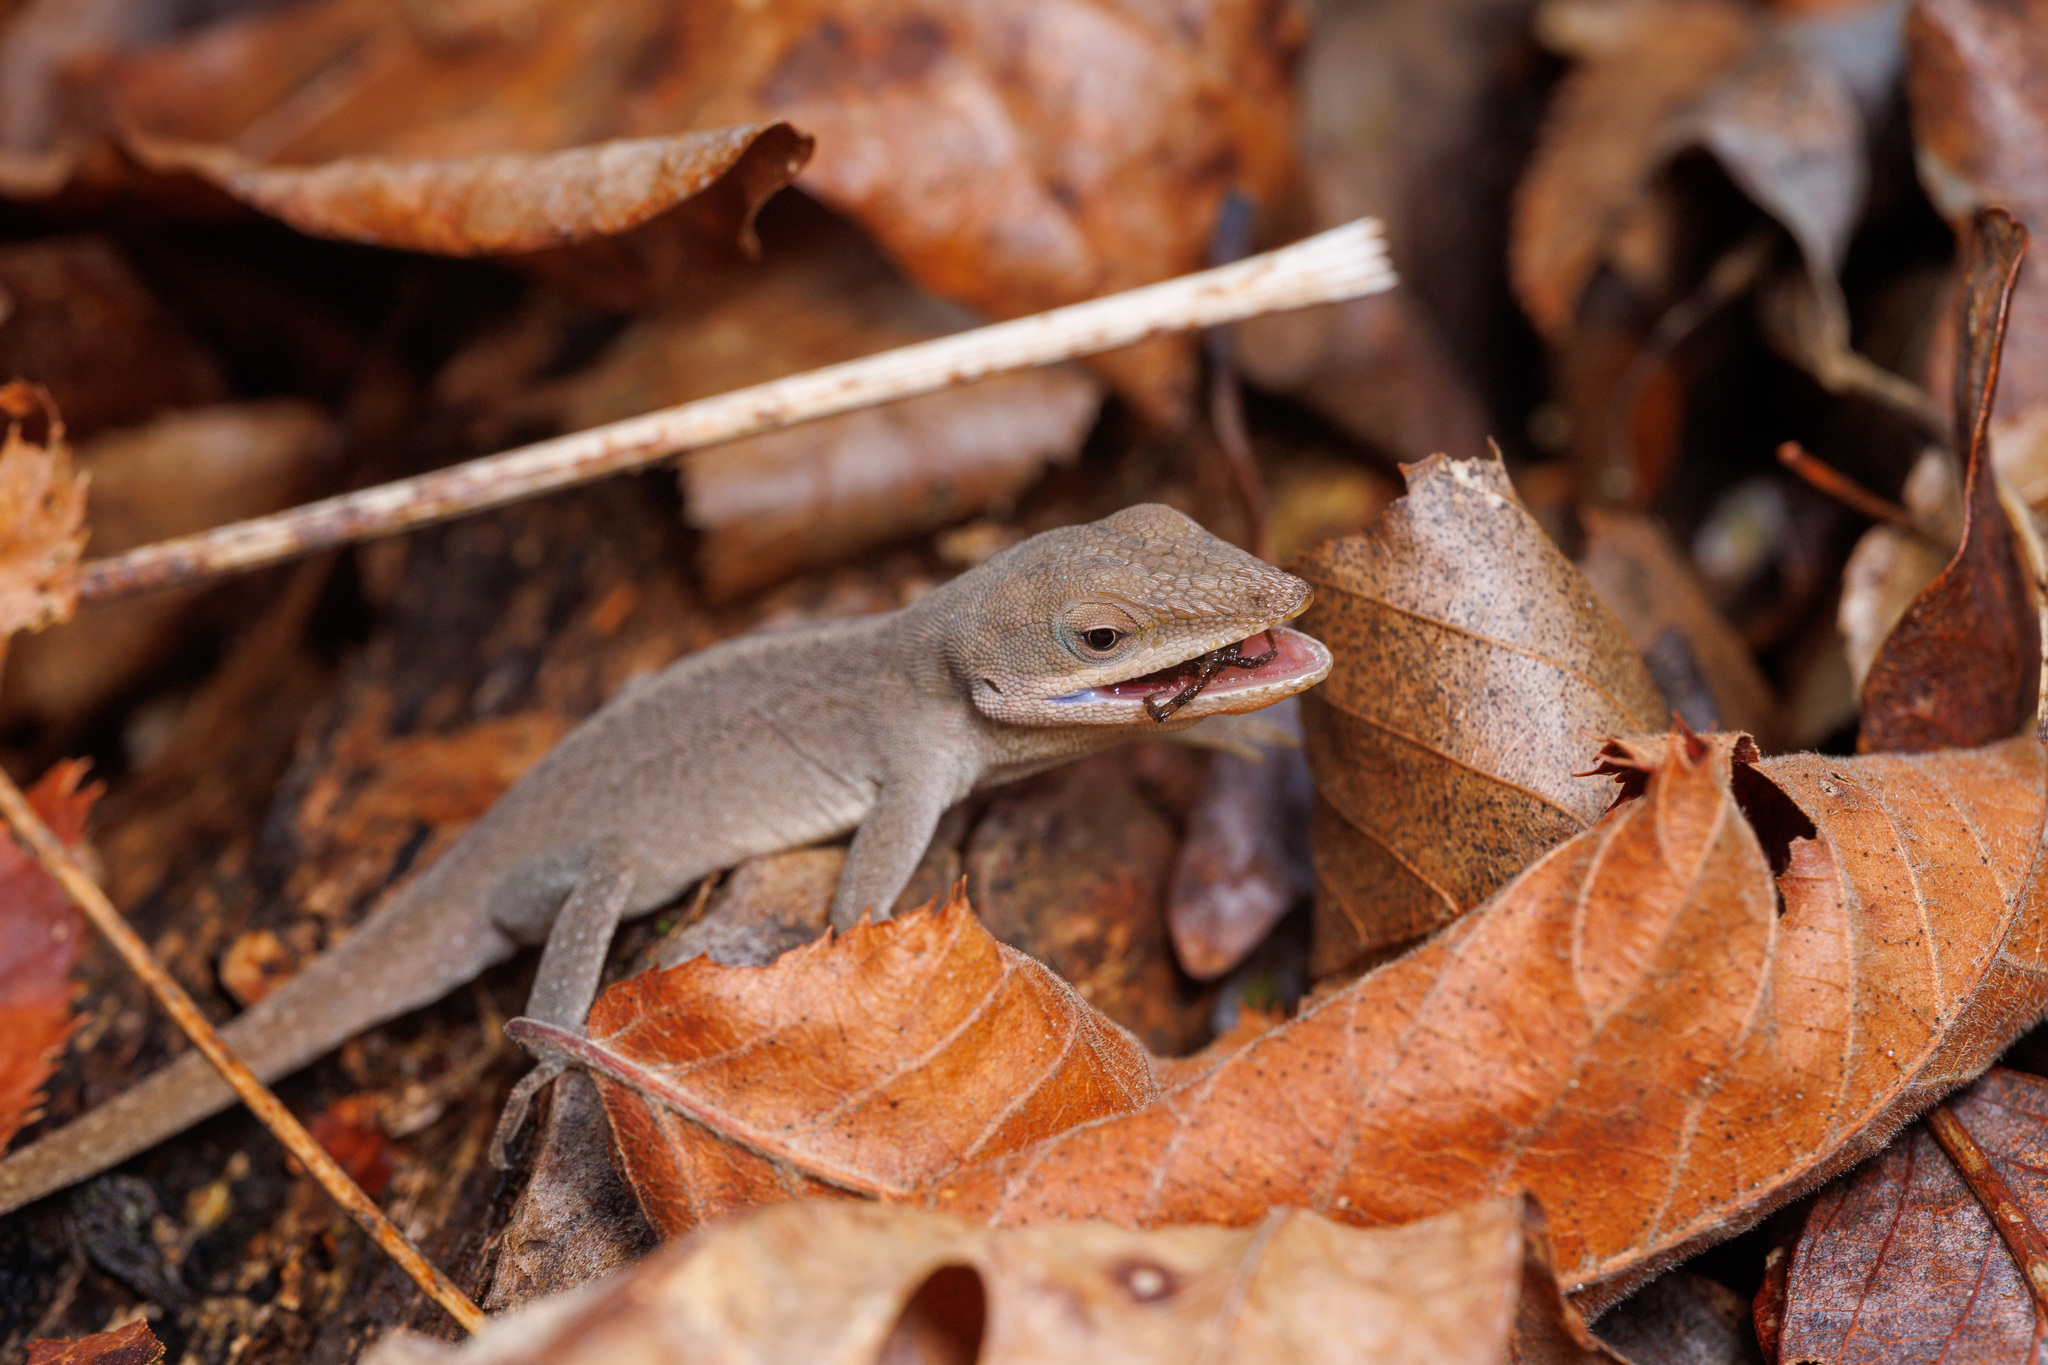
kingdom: Animalia
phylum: Chordata
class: Squamata
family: Dactyloidae
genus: Anolis
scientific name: Anolis carolinensis
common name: Green anole
